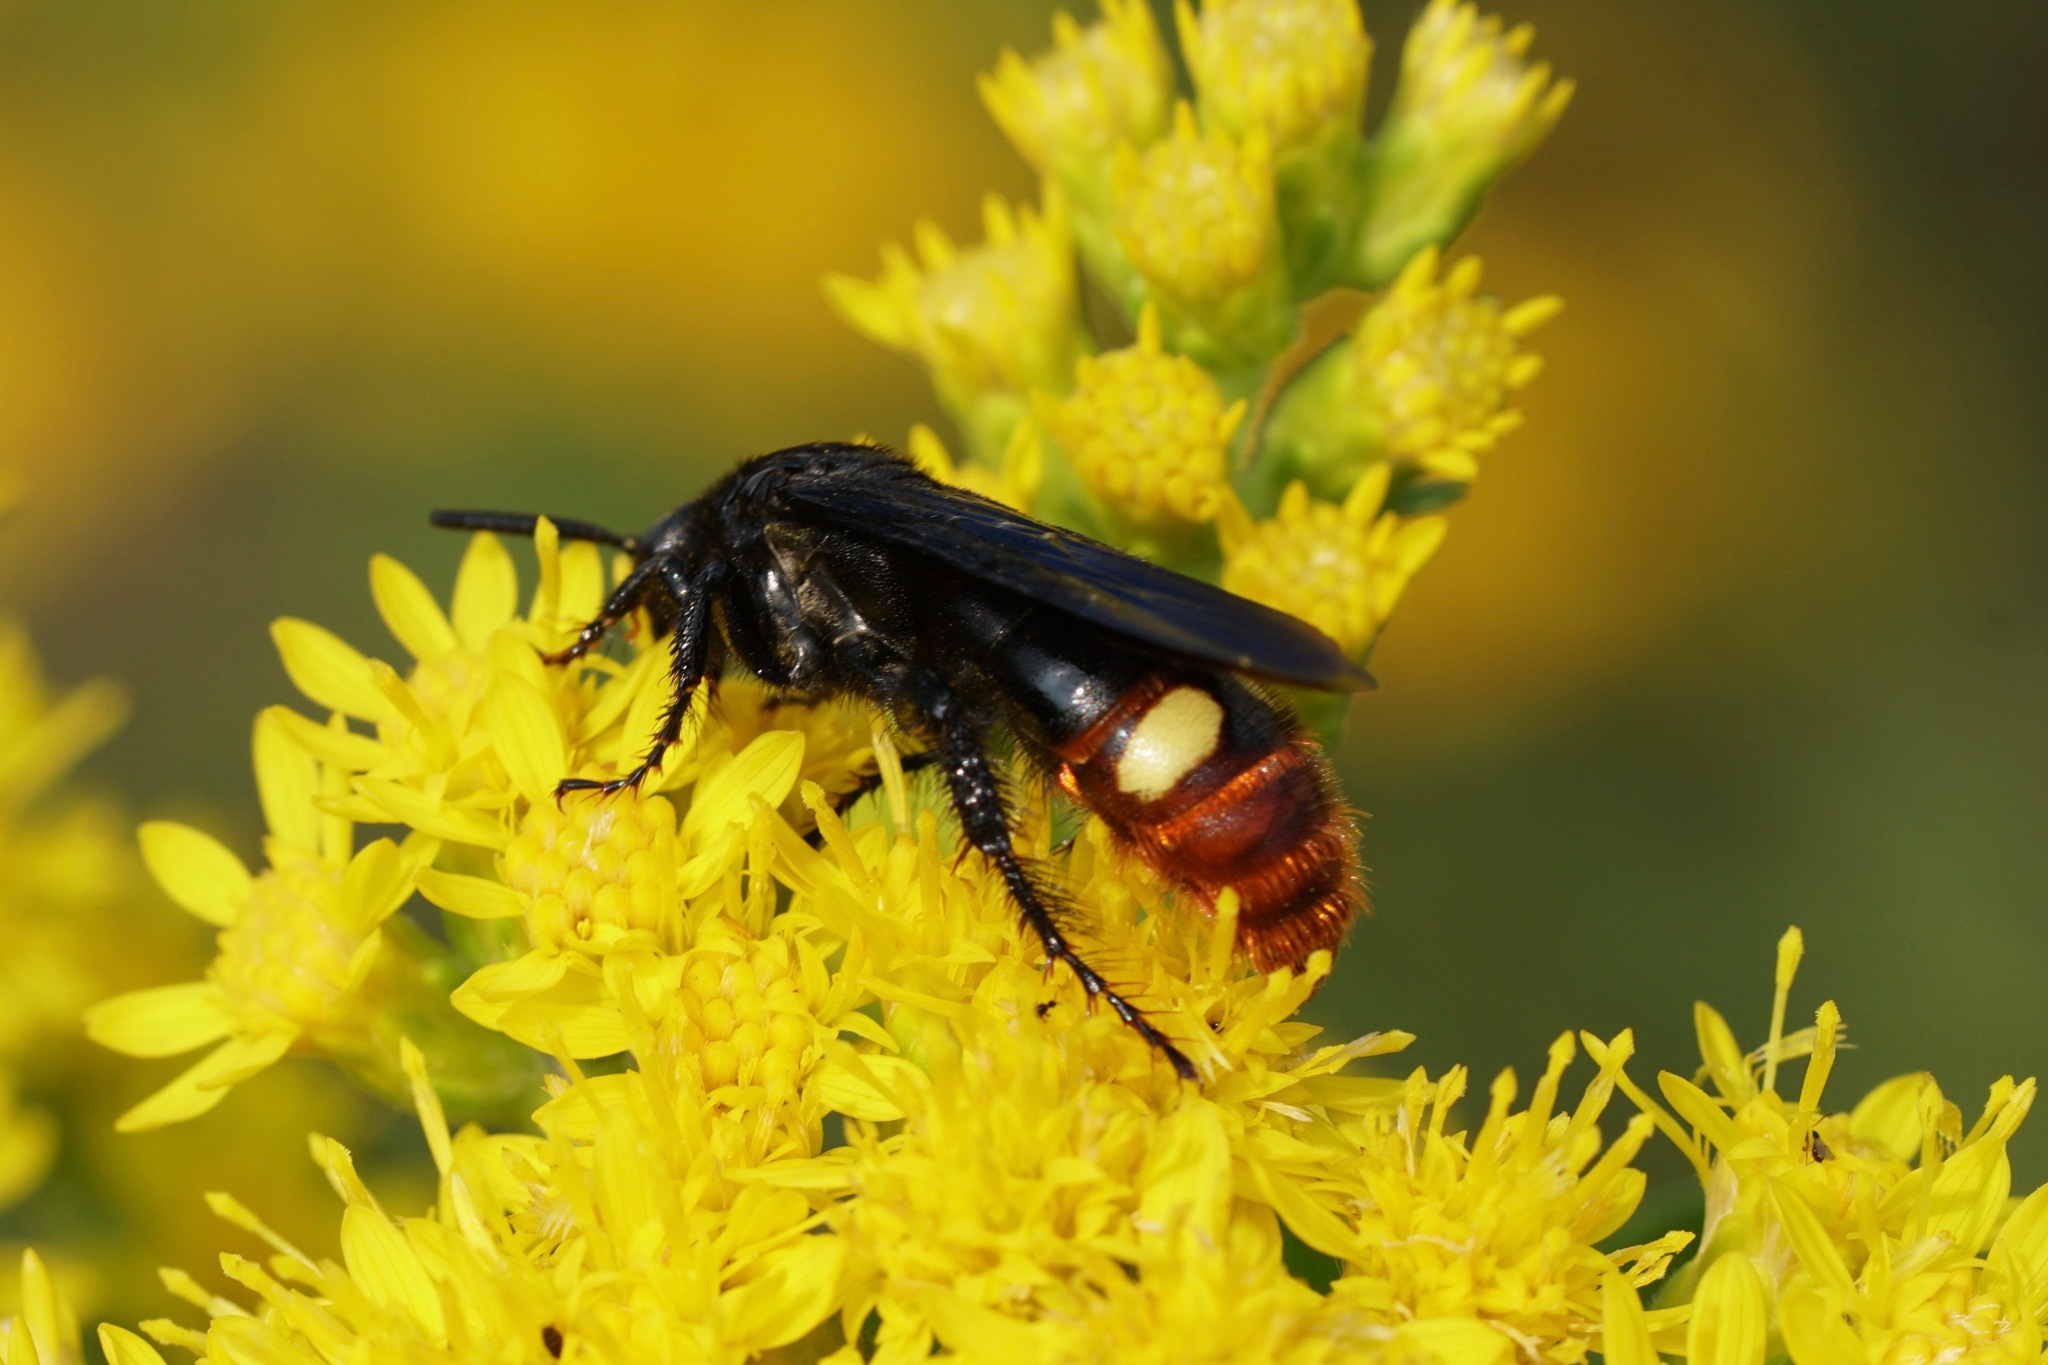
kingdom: Animalia
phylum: Arthropoda
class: Insecta
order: Hymenoptera
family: Scoliidae
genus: Scolia
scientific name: Scolia dubia
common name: Blue-winged scoliid wasp
